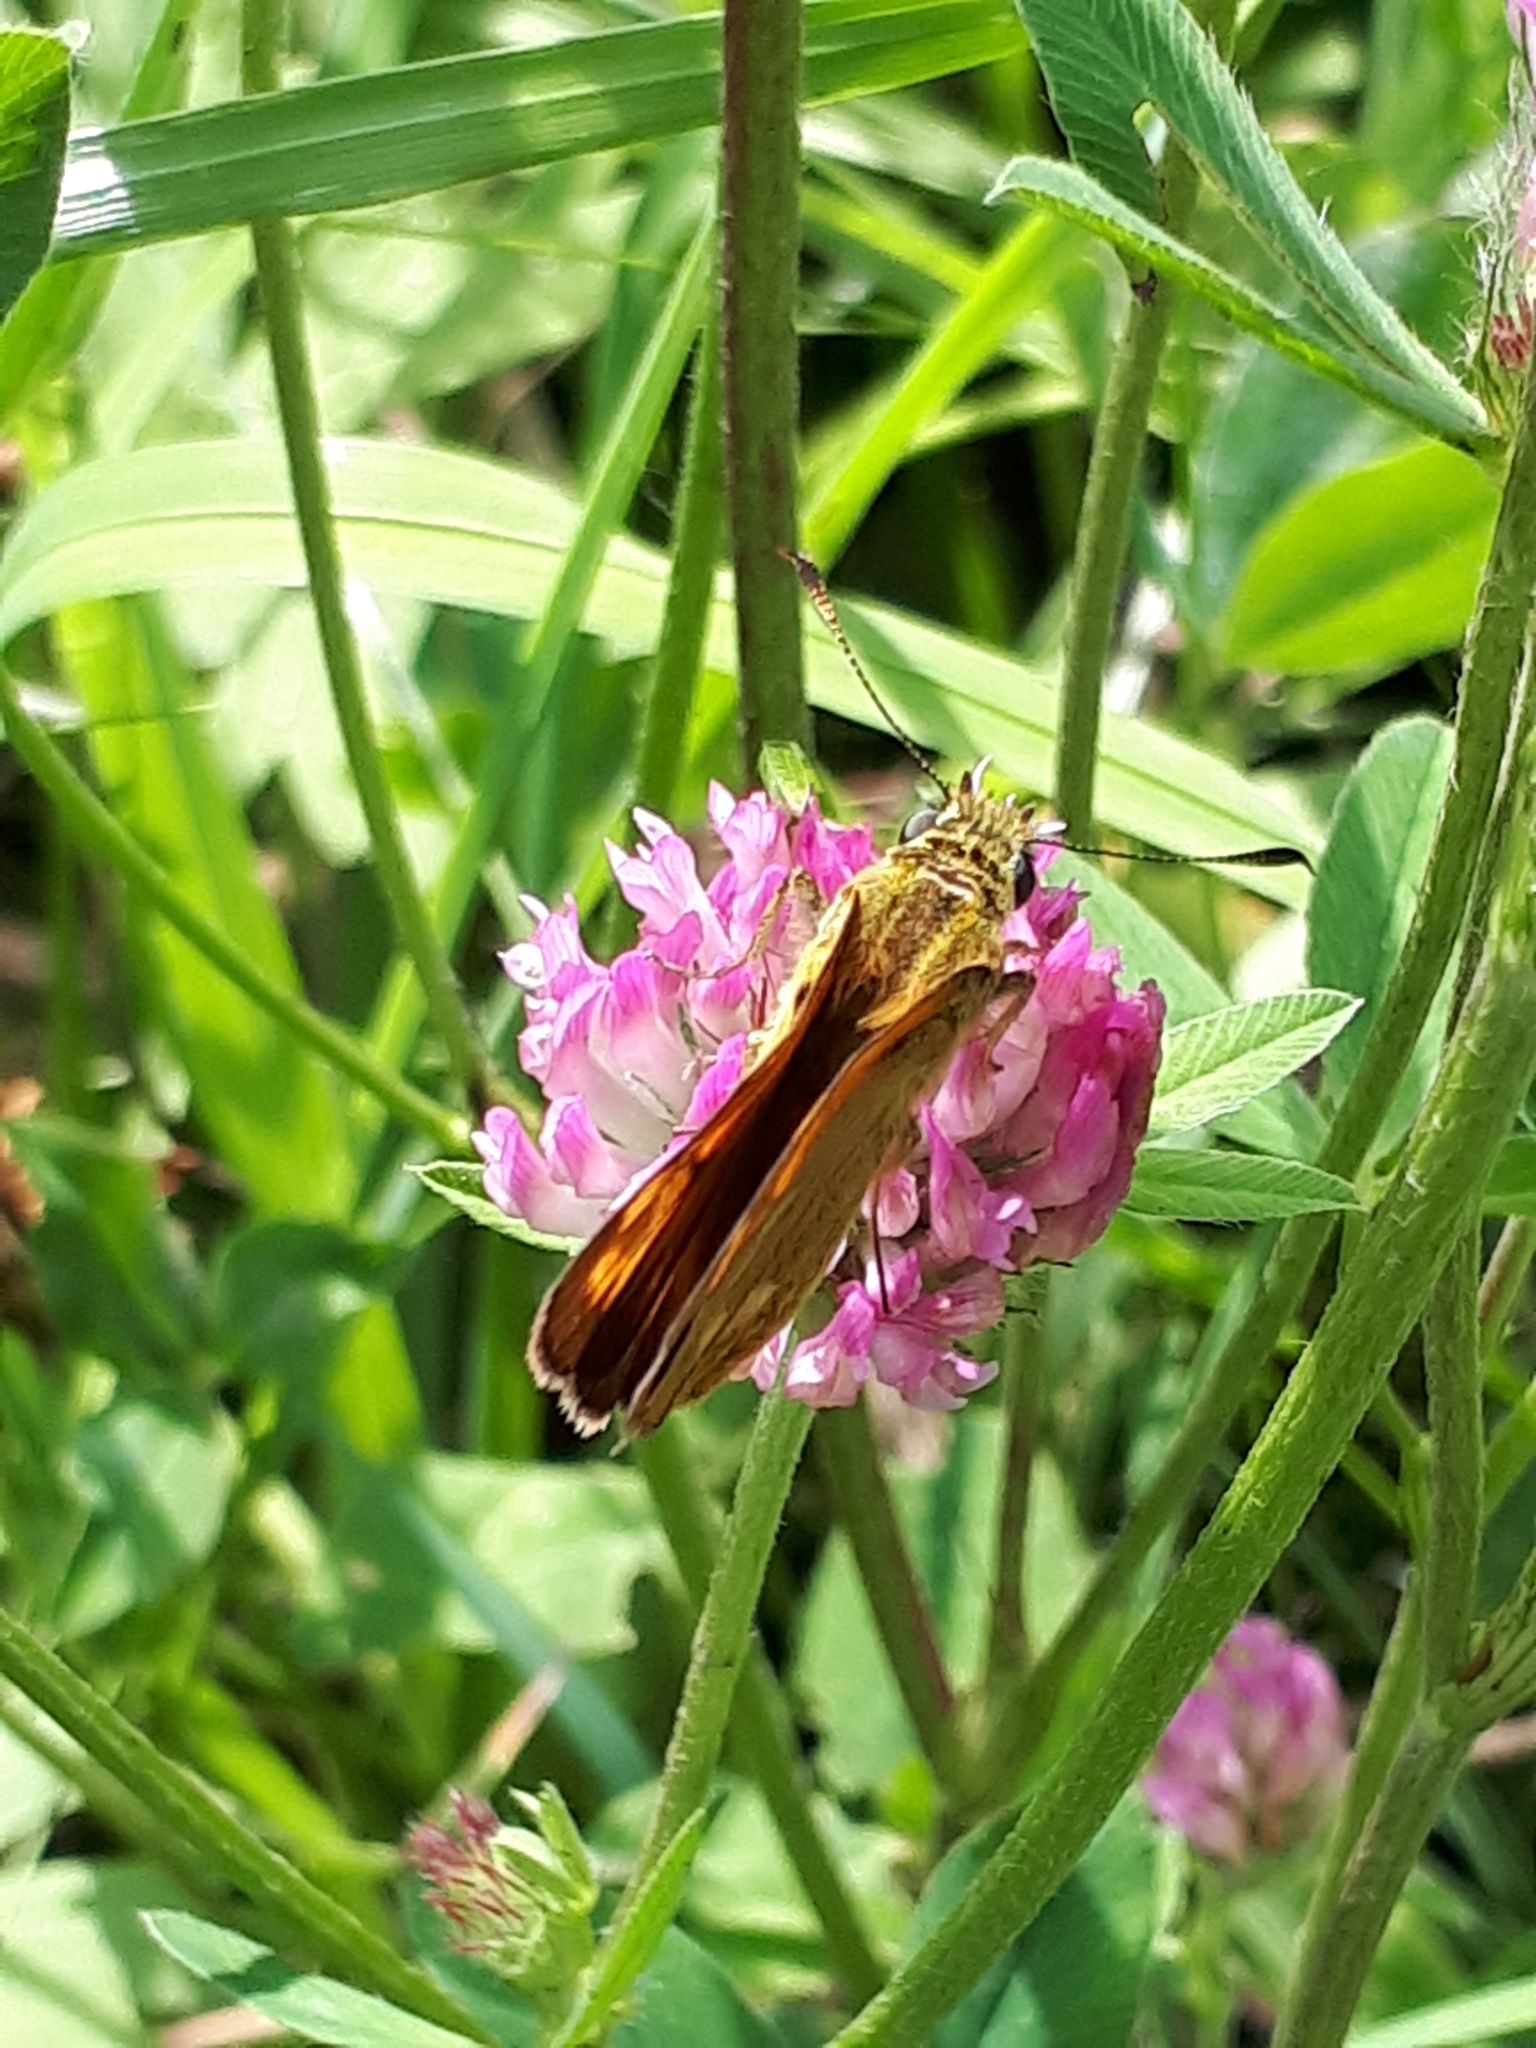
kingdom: Animalia
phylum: Arthropoda
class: Insecta
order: Lepidoptera
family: Hesperiidae
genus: Ochlodes
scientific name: Ochlodes venata
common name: Large skipper
